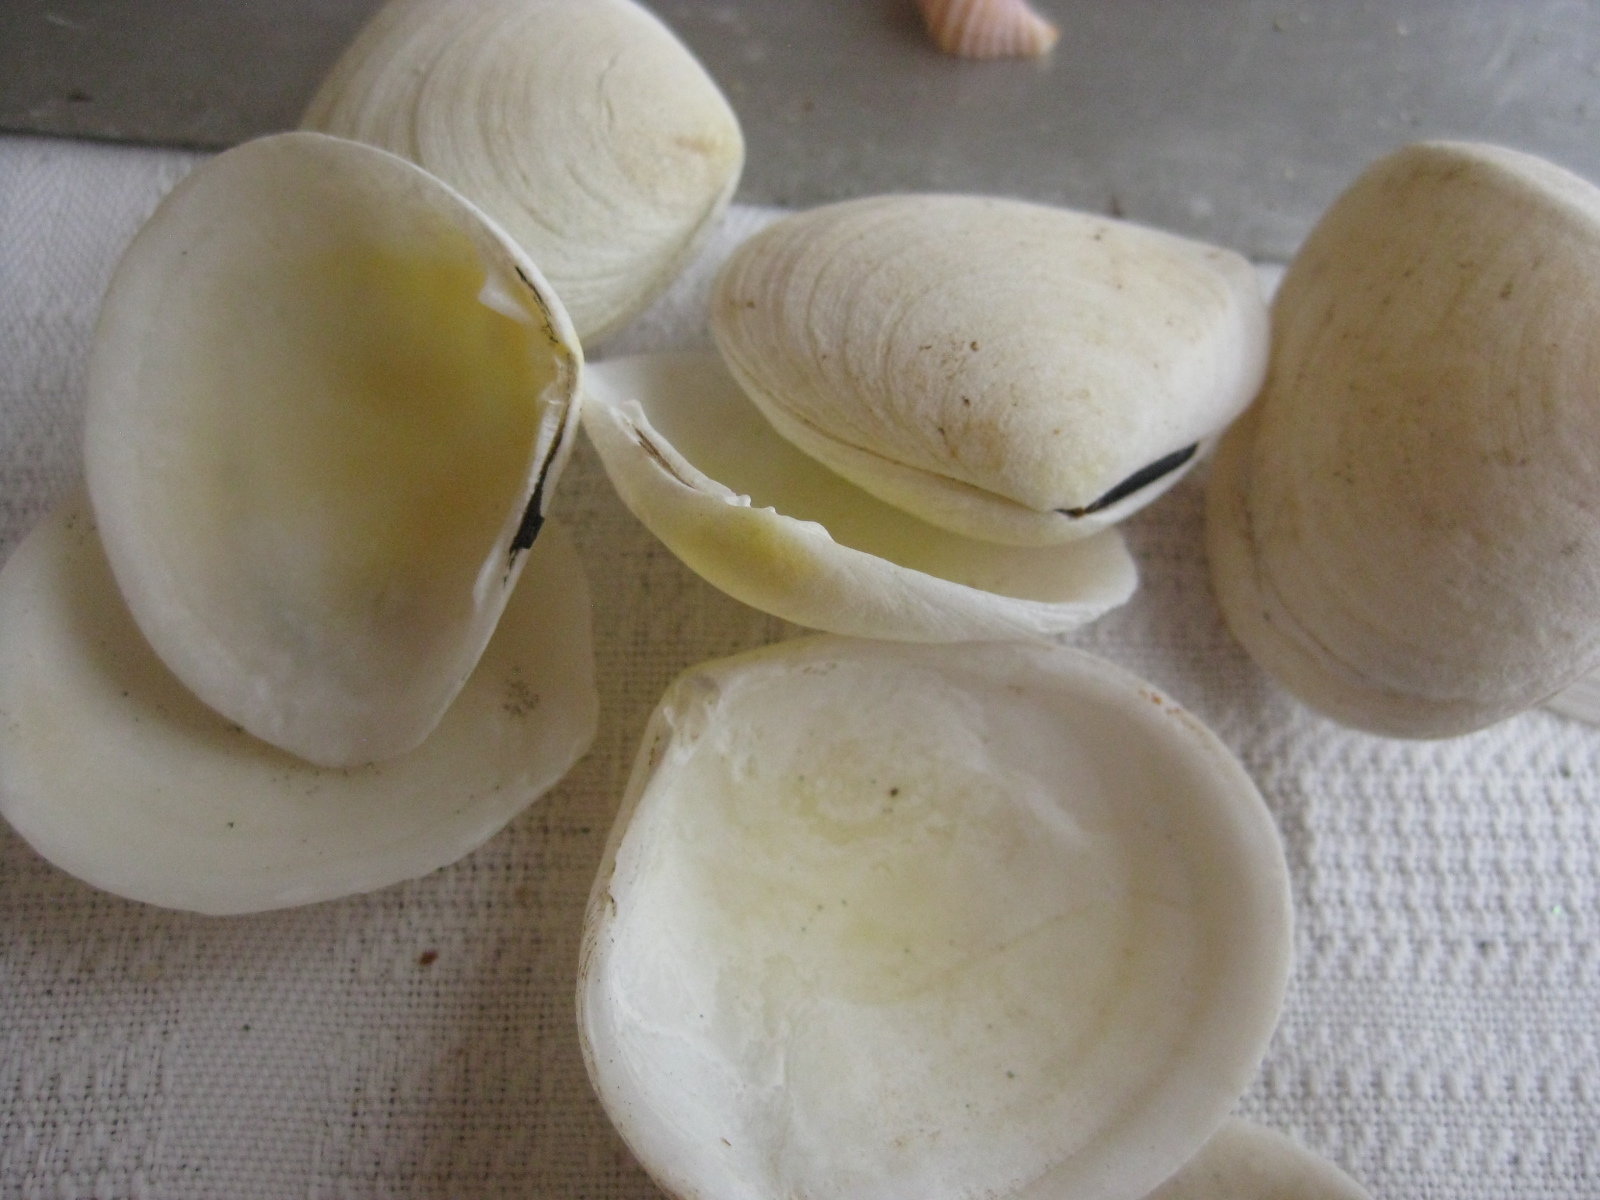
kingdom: Animalia
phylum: Mollusca
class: Bivalvia
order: Cardiida
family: Tellinidae
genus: Pseudarcopagia
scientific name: Pseudarcopagia disculus
